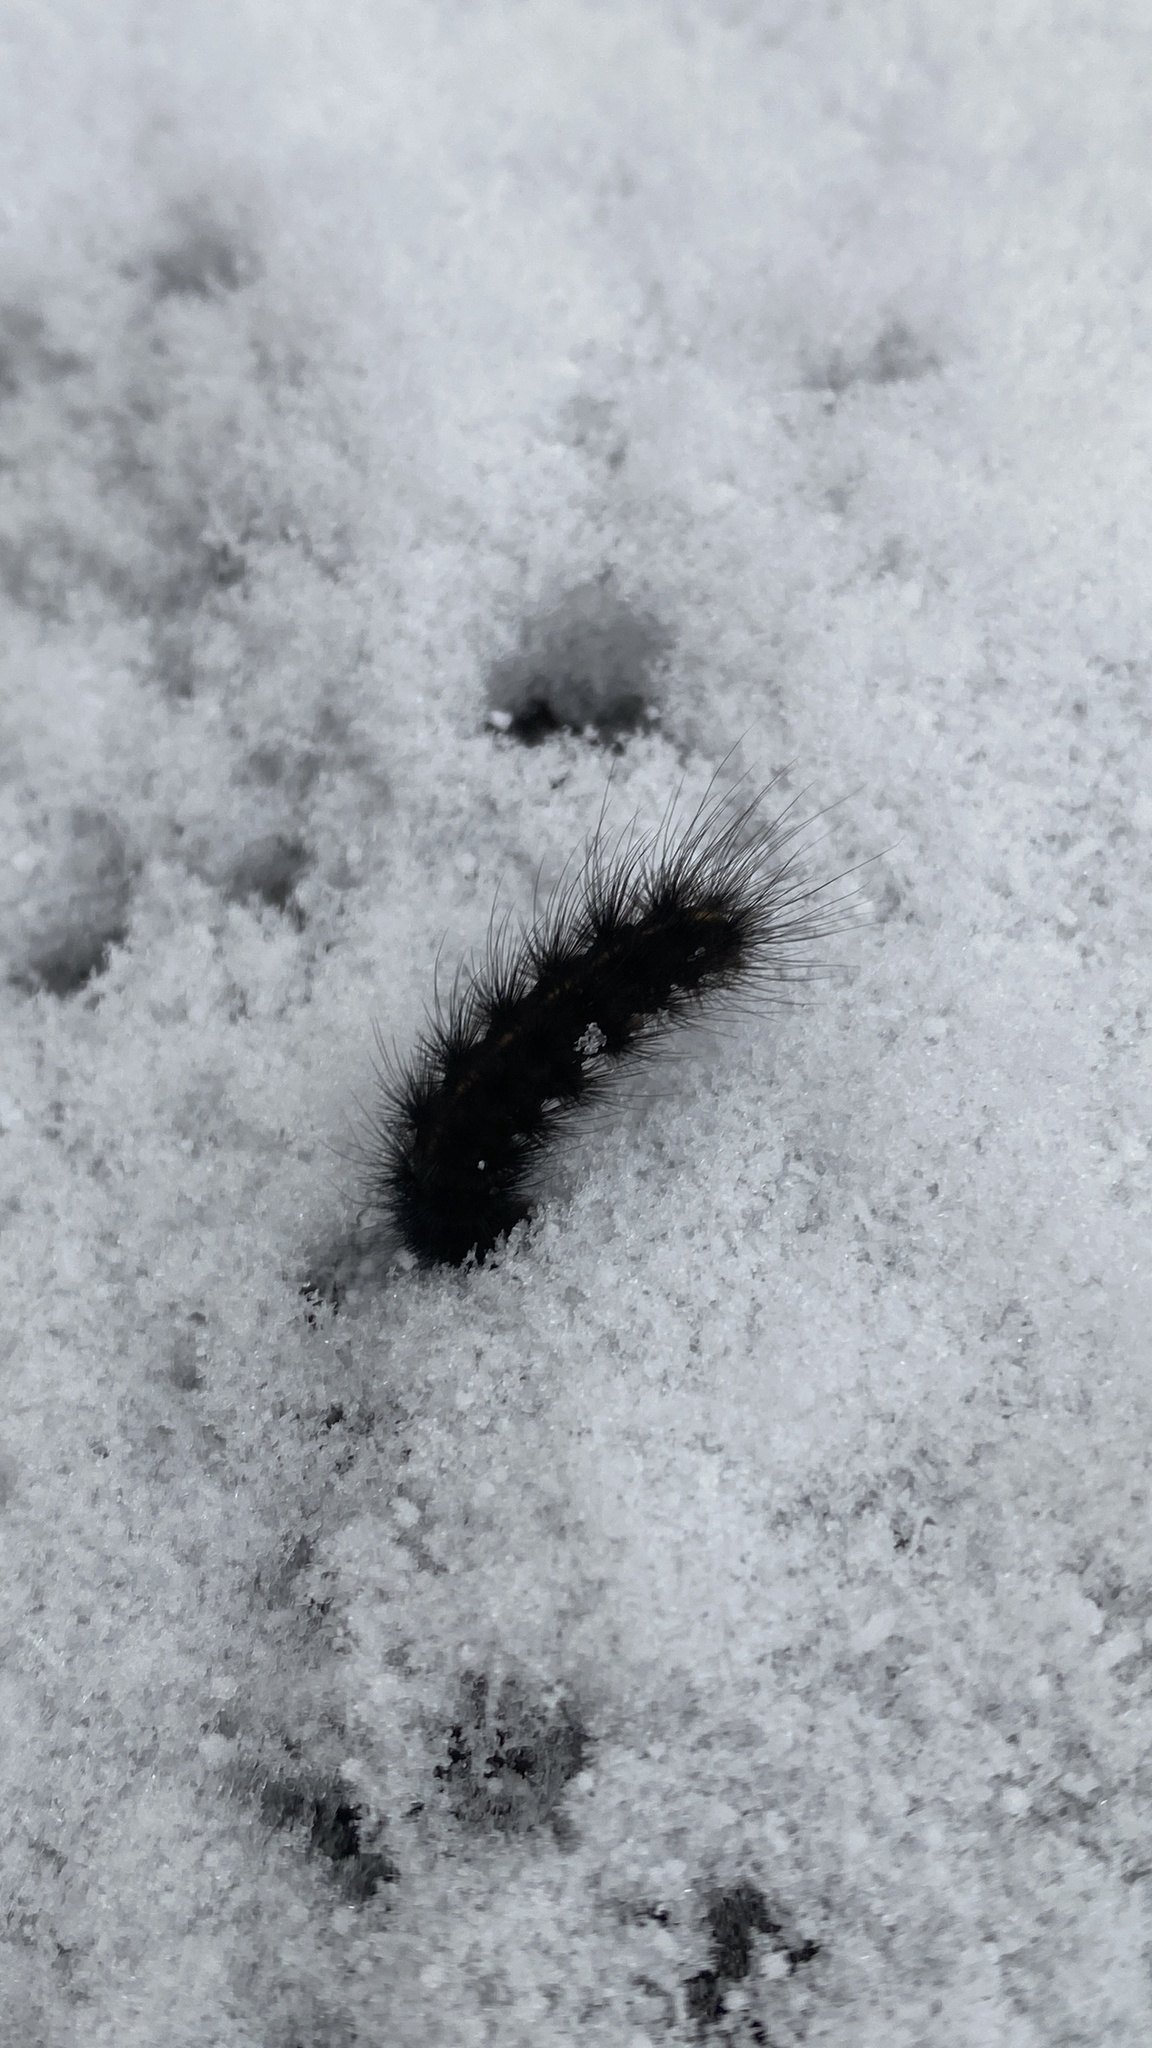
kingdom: Animalia
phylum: Arthropoda
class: Insecta
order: Lepidoptera
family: Erebidae
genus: Phragmatobia
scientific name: Phragmatobia fuliginosa
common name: Ruby tiger
